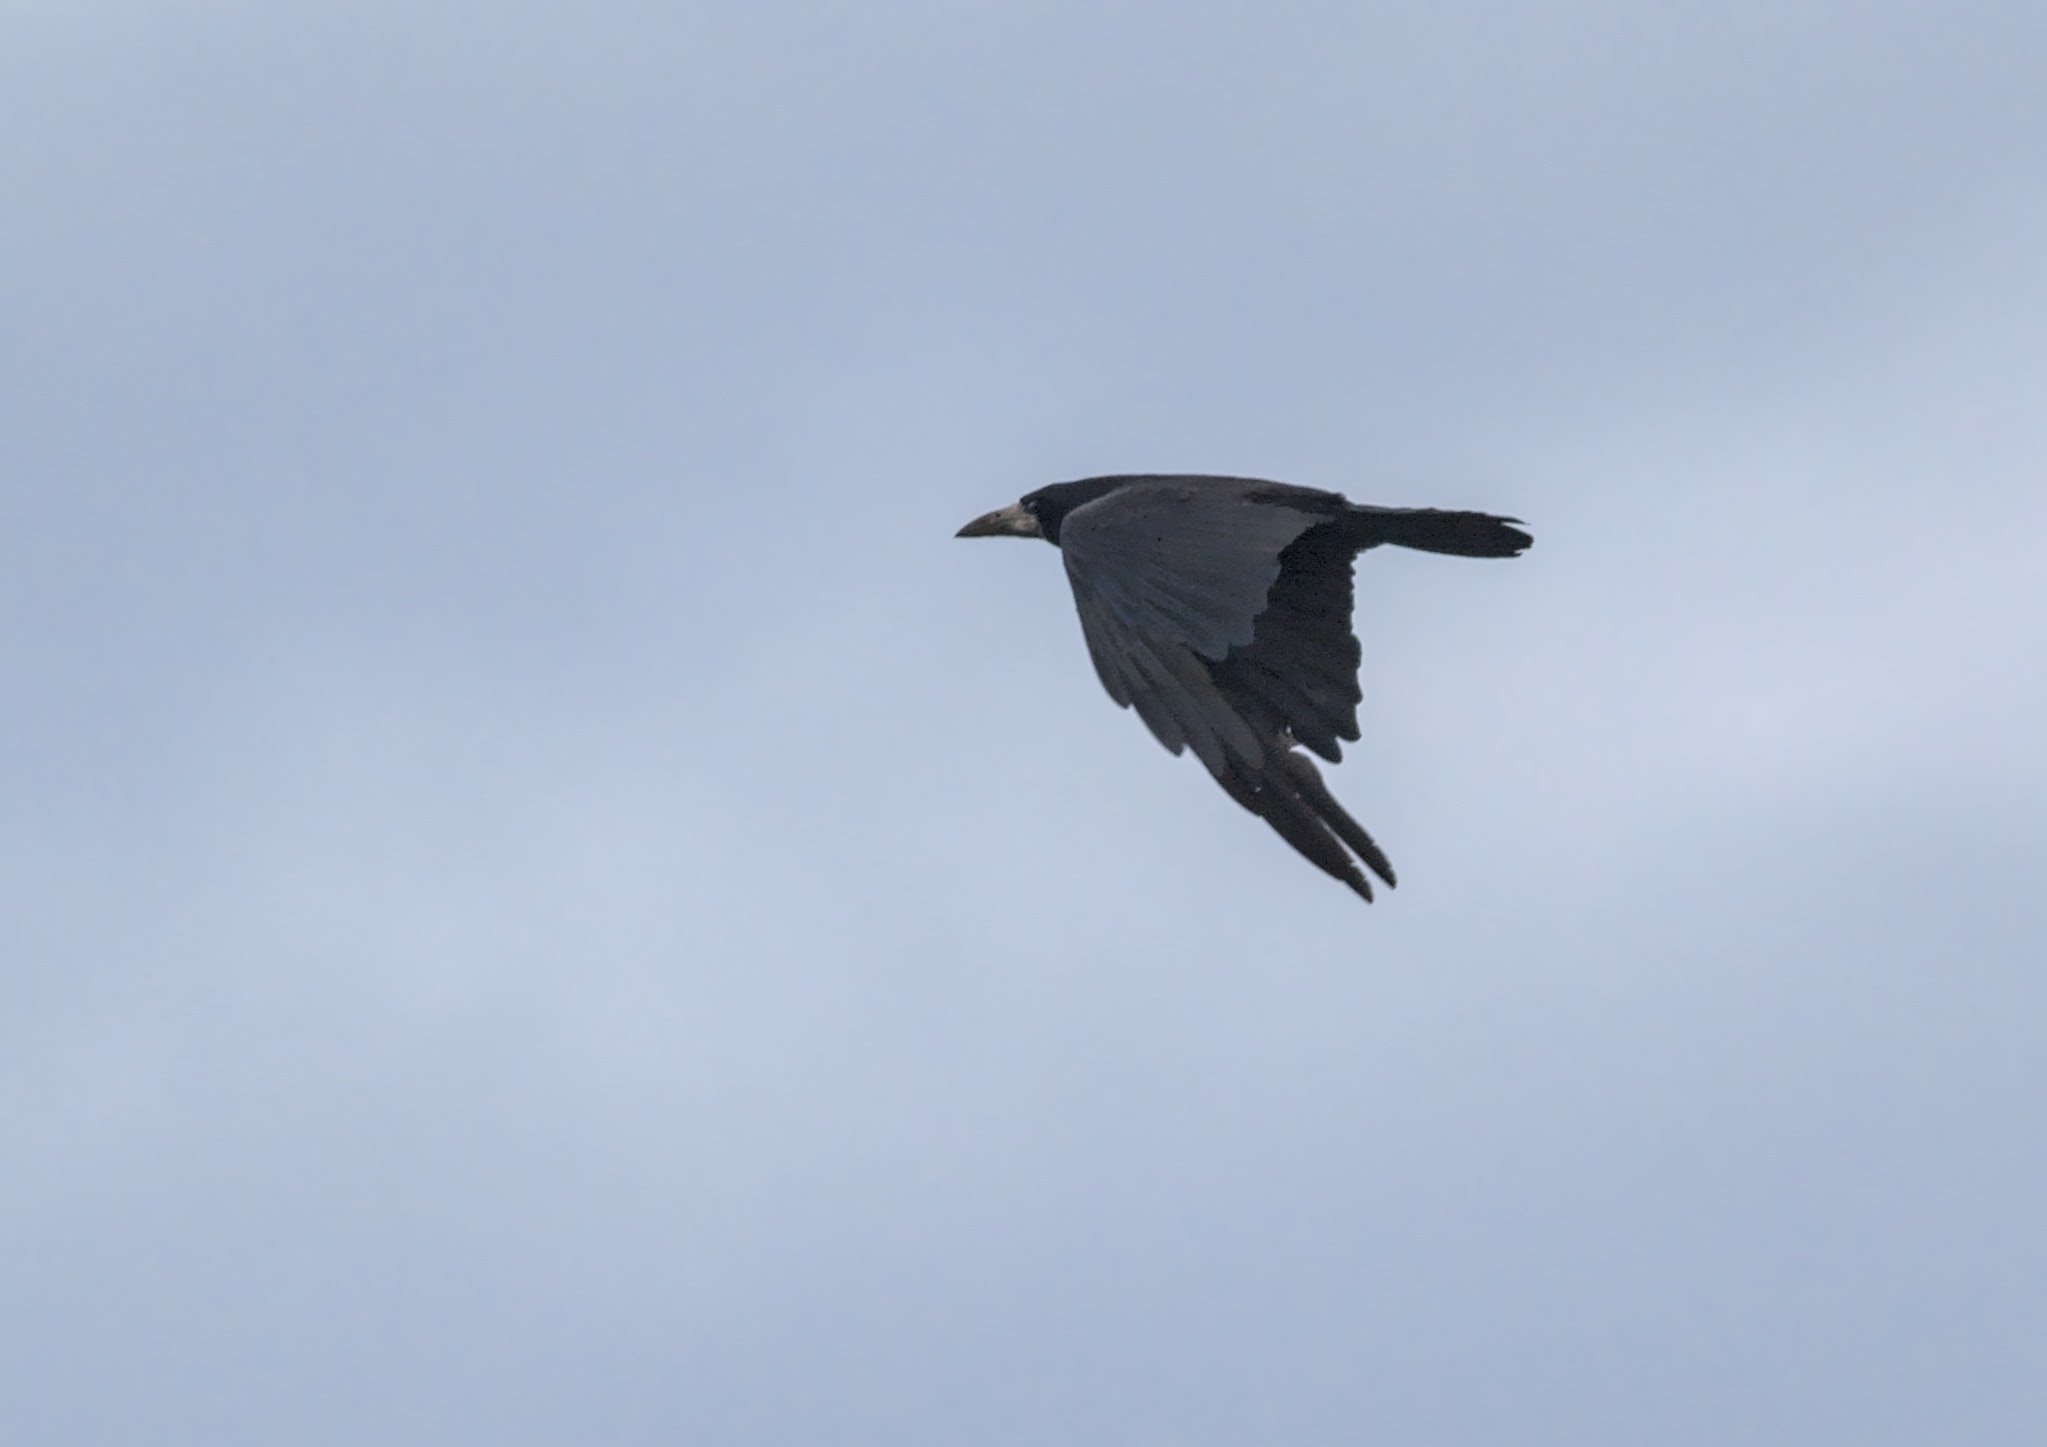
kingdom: Animalia
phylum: Chordata
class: Aves
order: Passeriformes
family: Corvidae
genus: Corvus
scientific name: Corvus frugilegus
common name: Rook
